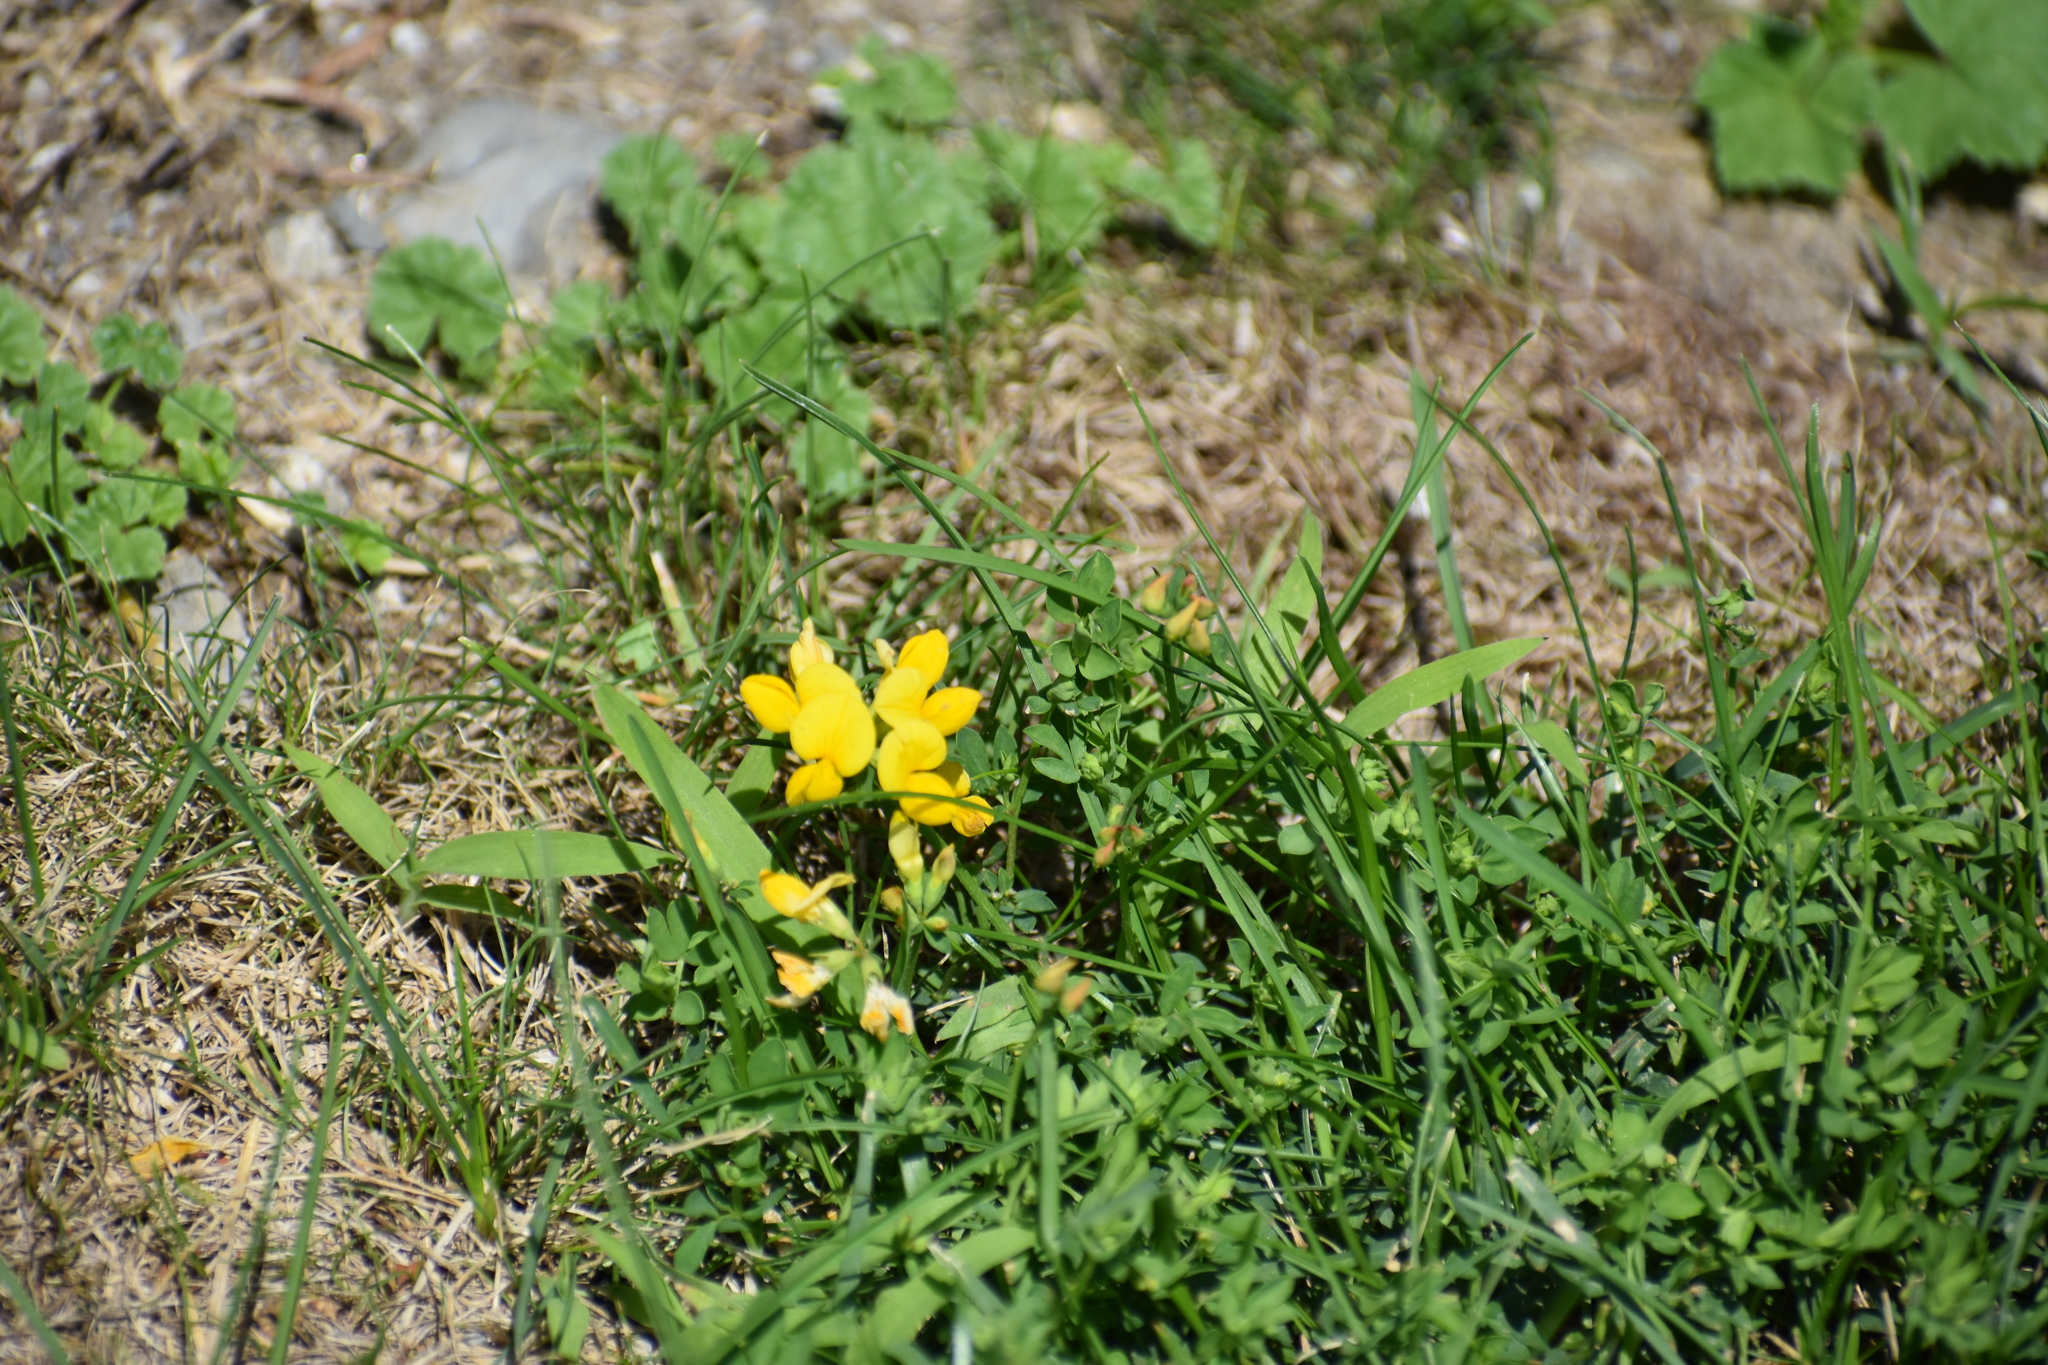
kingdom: Plantae
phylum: Tracheophyta
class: Magnoliopsida
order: Fabales
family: Fabaceae
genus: Lotus
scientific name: Lotus corniculatus
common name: Common bird's-foot-trefoil
